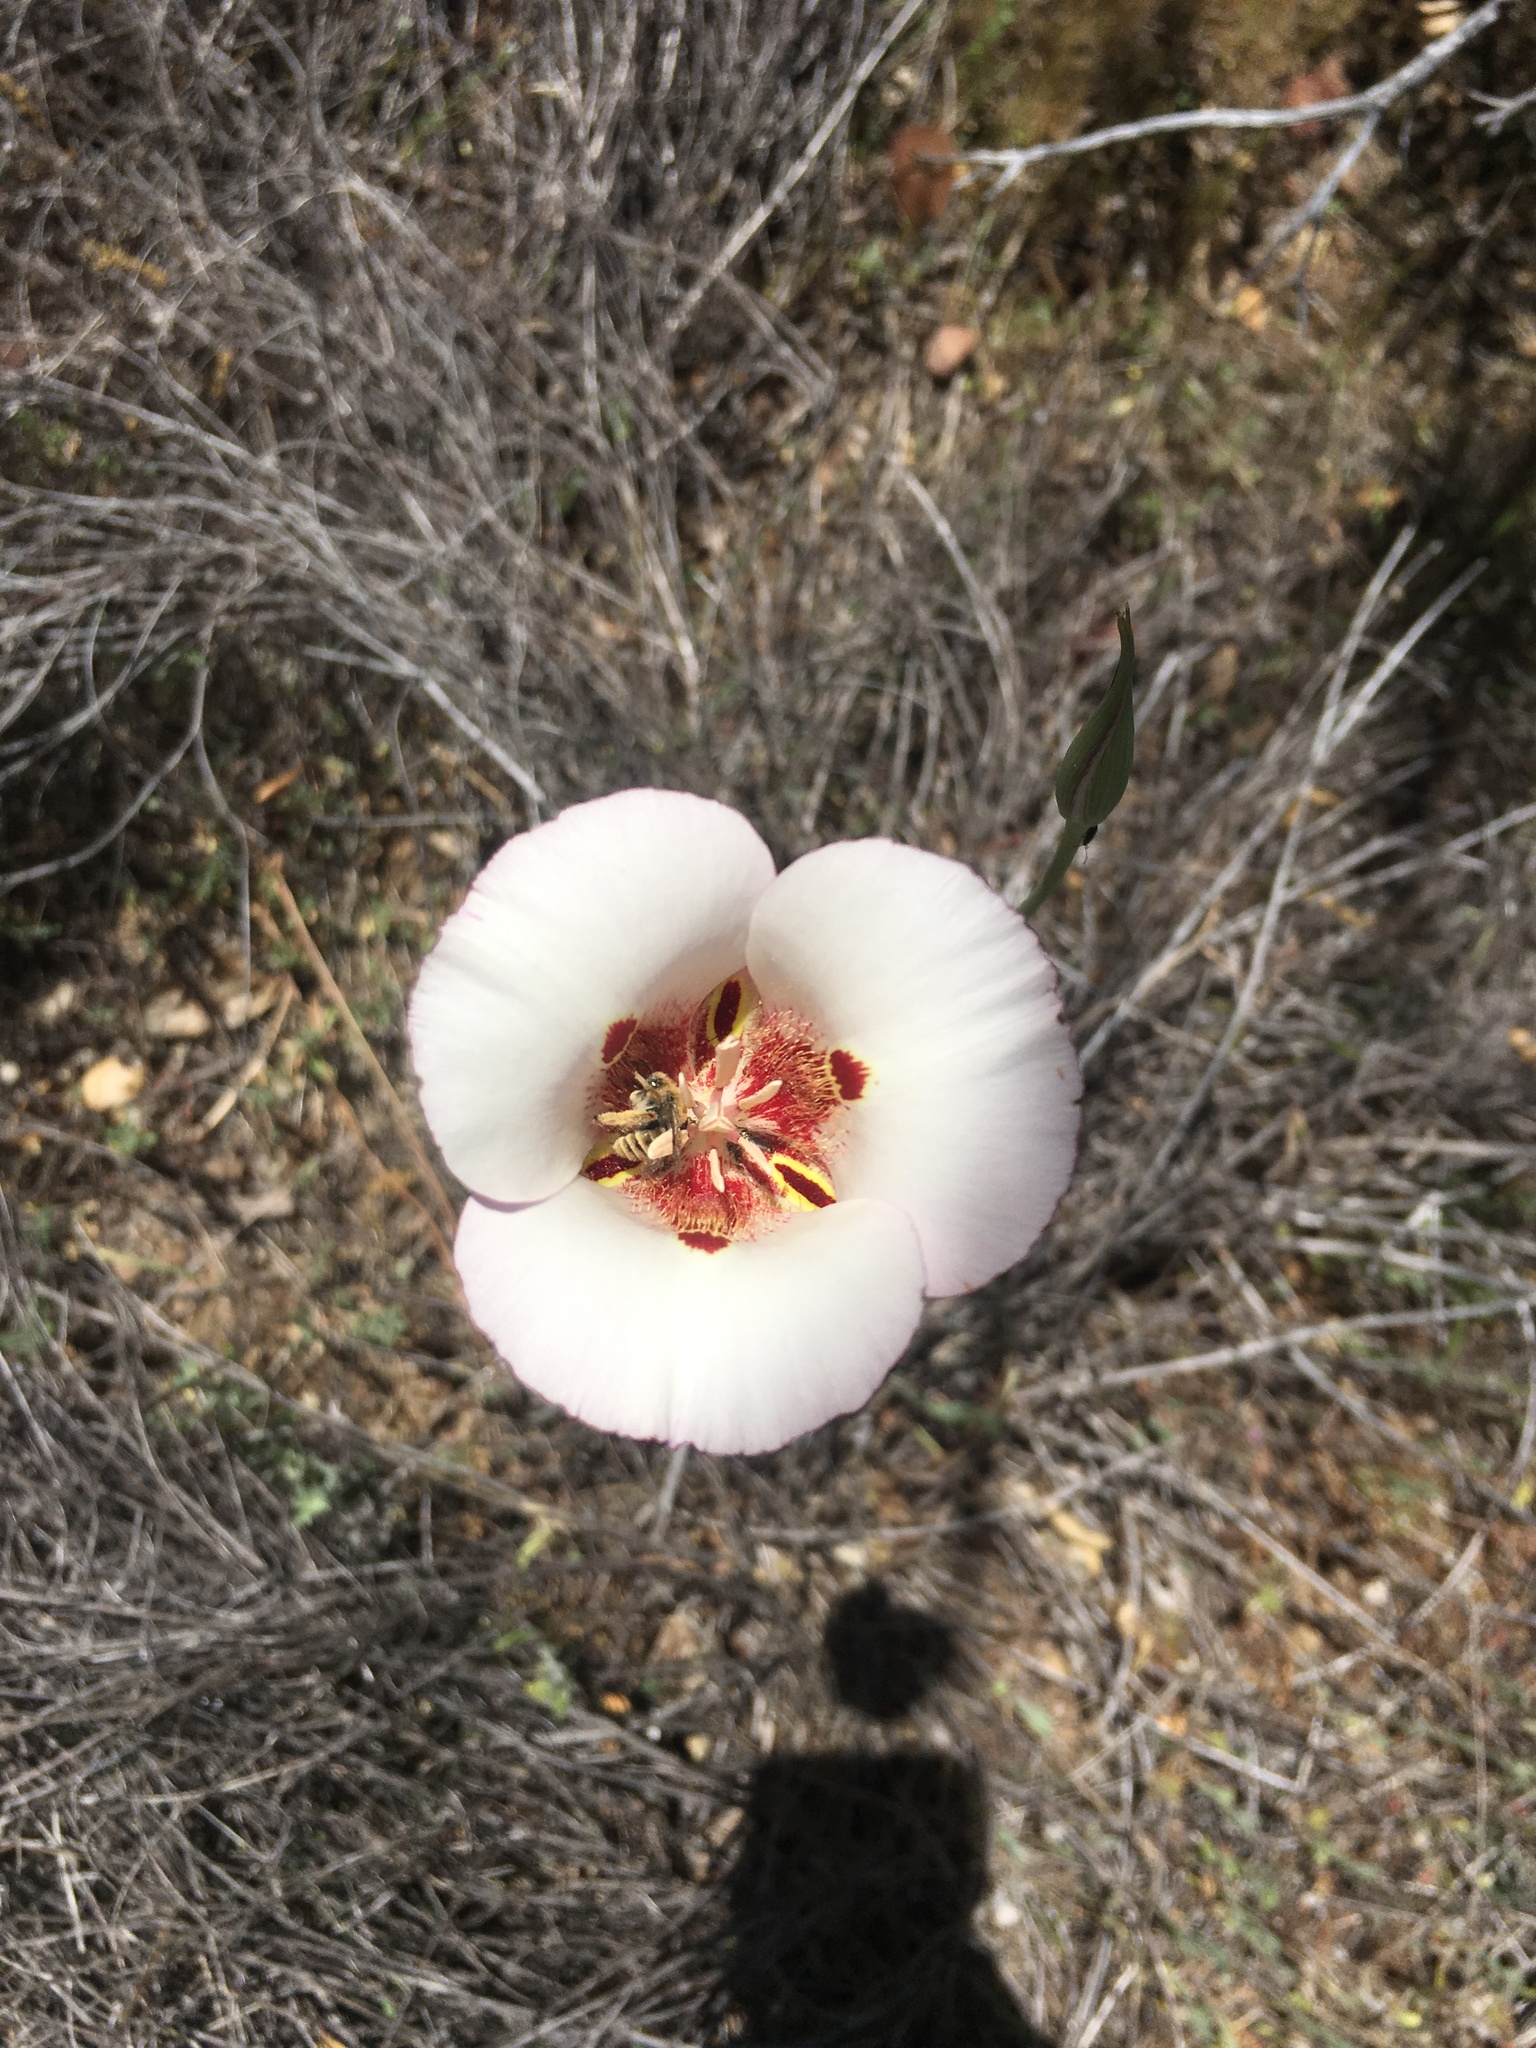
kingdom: Plantae
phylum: Tracheophyta
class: Liliopsida
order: Liliales
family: Liliaceae
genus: Calochortus
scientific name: Calochortus venustus
